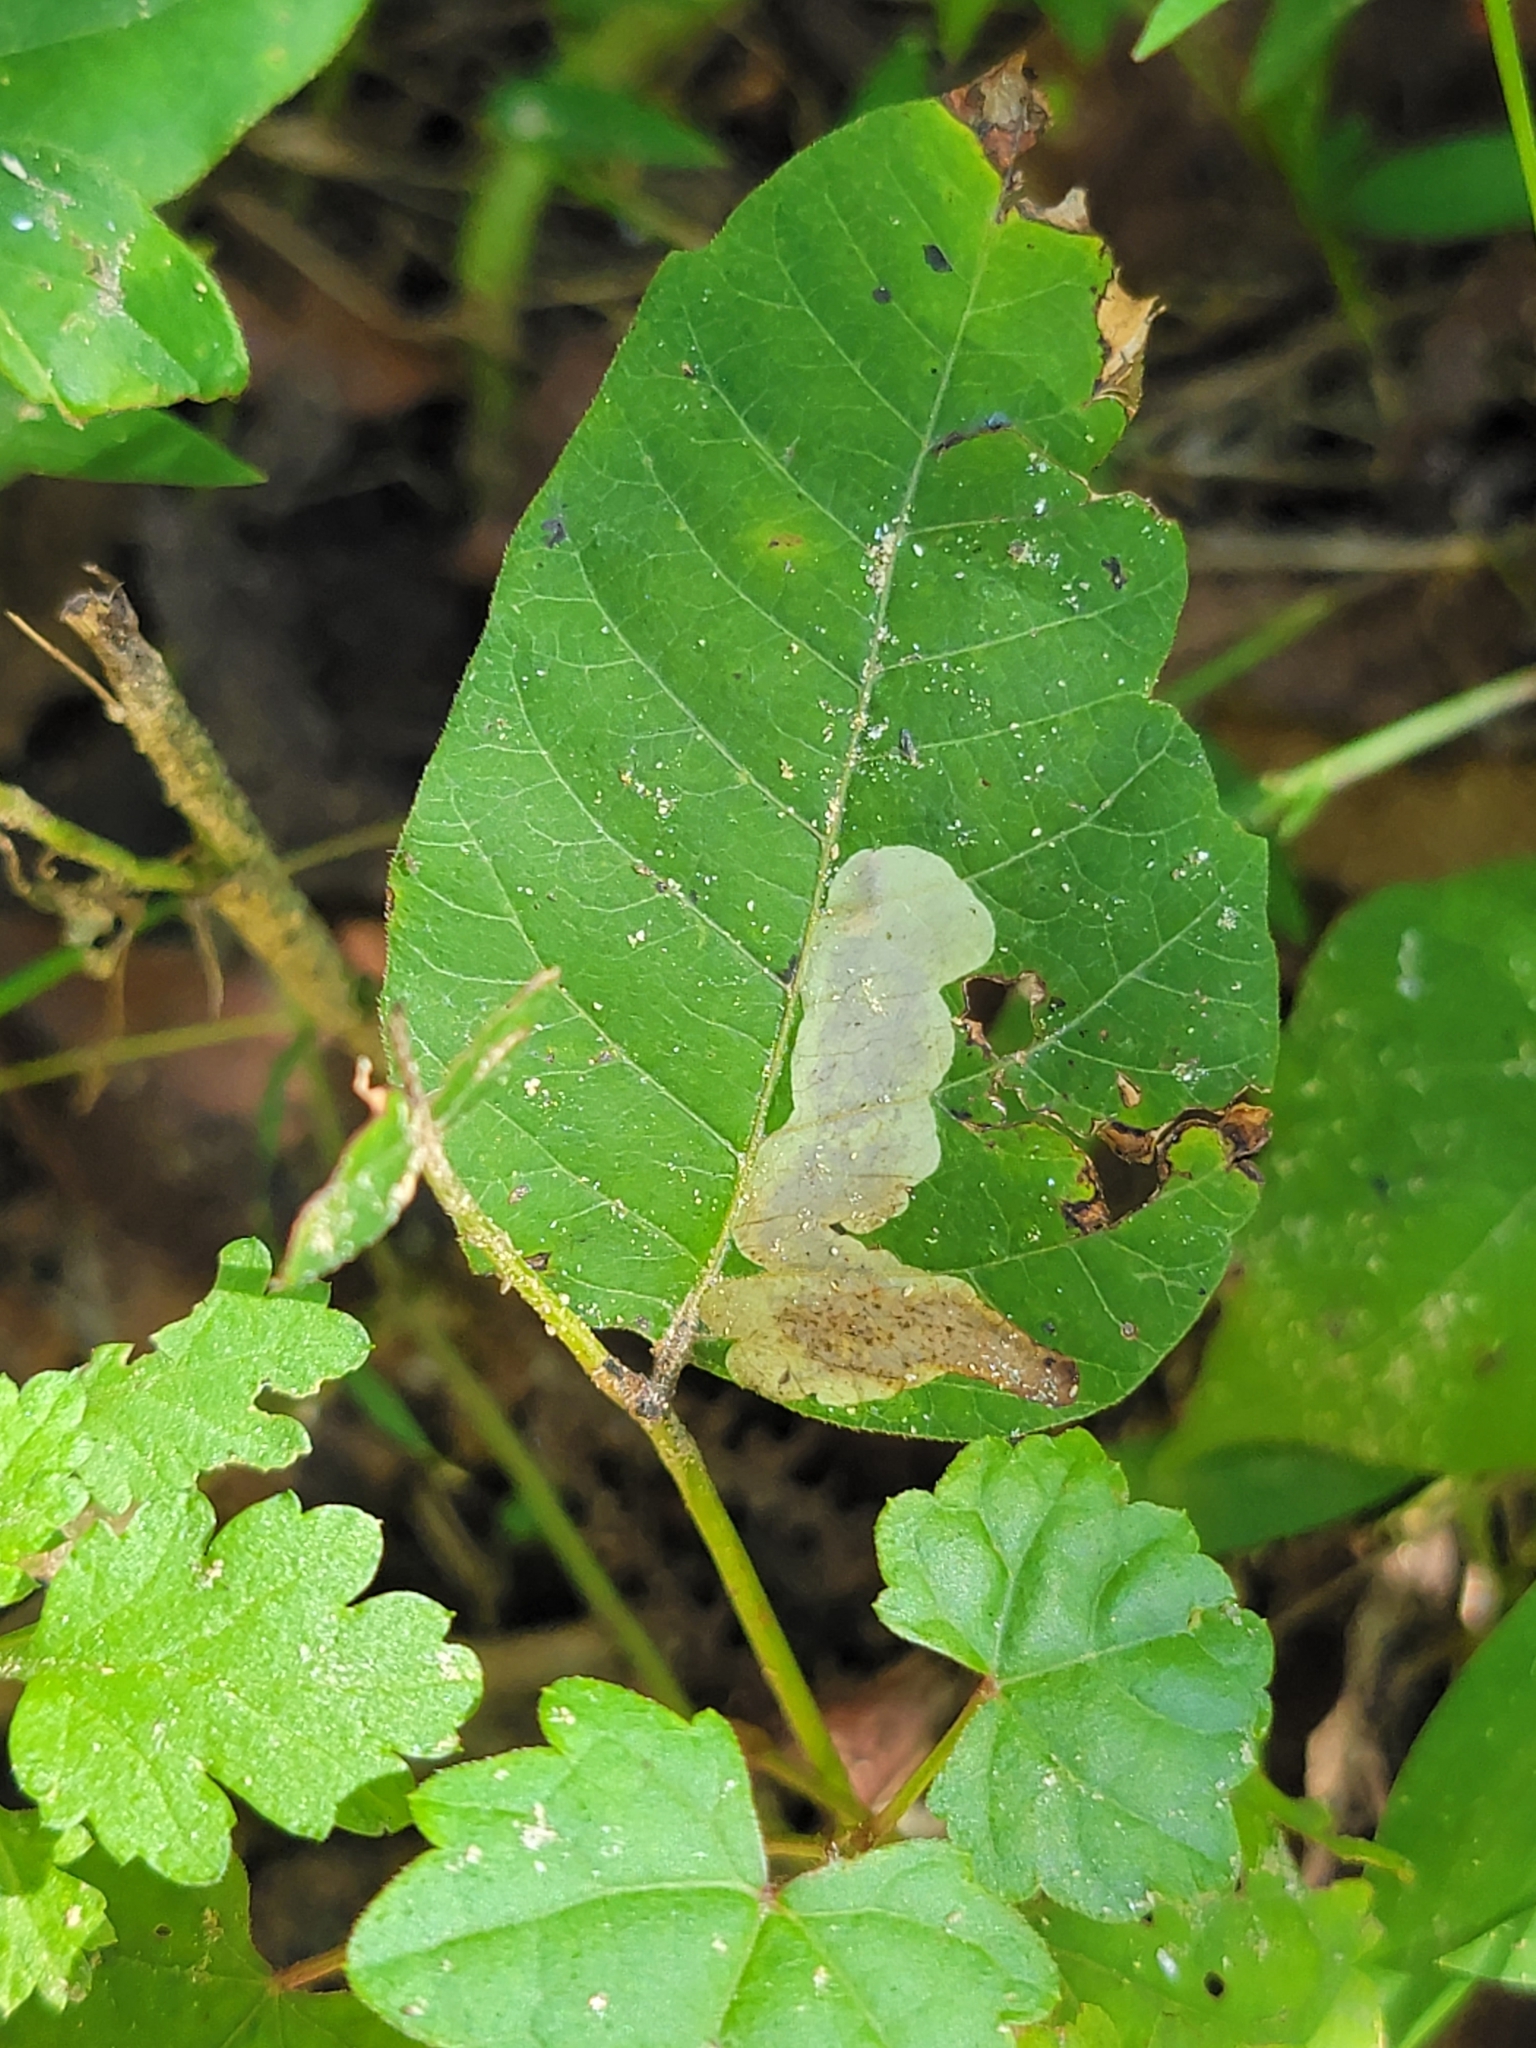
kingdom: Animalia
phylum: Arthropoda
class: Insecta
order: Lepidoptera
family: Gracillariidae
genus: Cameraria
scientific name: Cameraria guttifinitella
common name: Poison ivy leaf-miner moth
